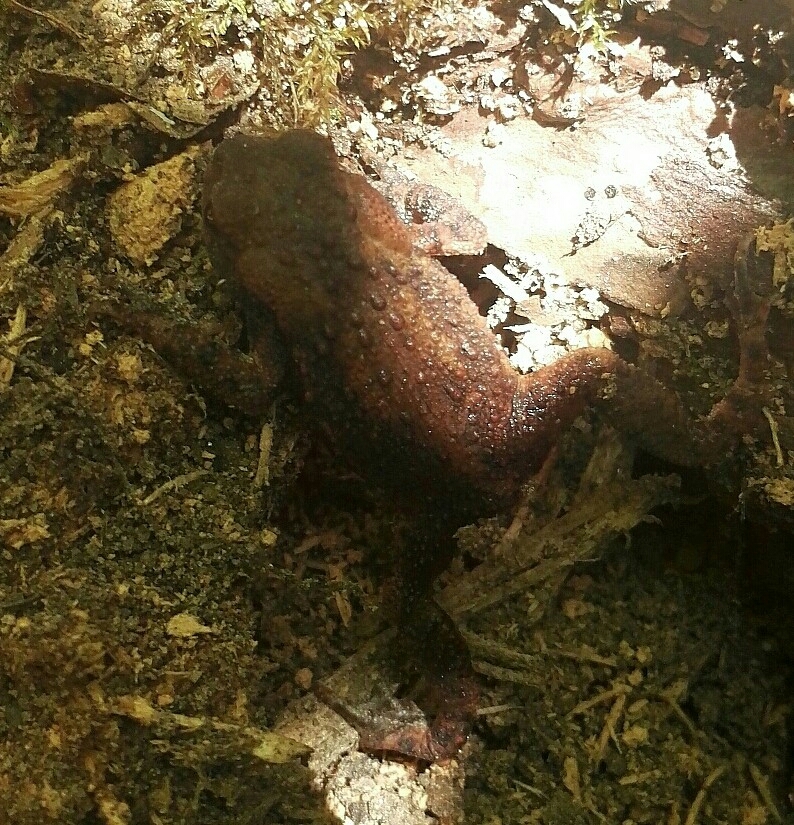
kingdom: Animalia
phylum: Chordata
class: Amphibia
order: Anura
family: Bufonidae
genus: Bufo
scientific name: Bufo bufo
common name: Common toad
